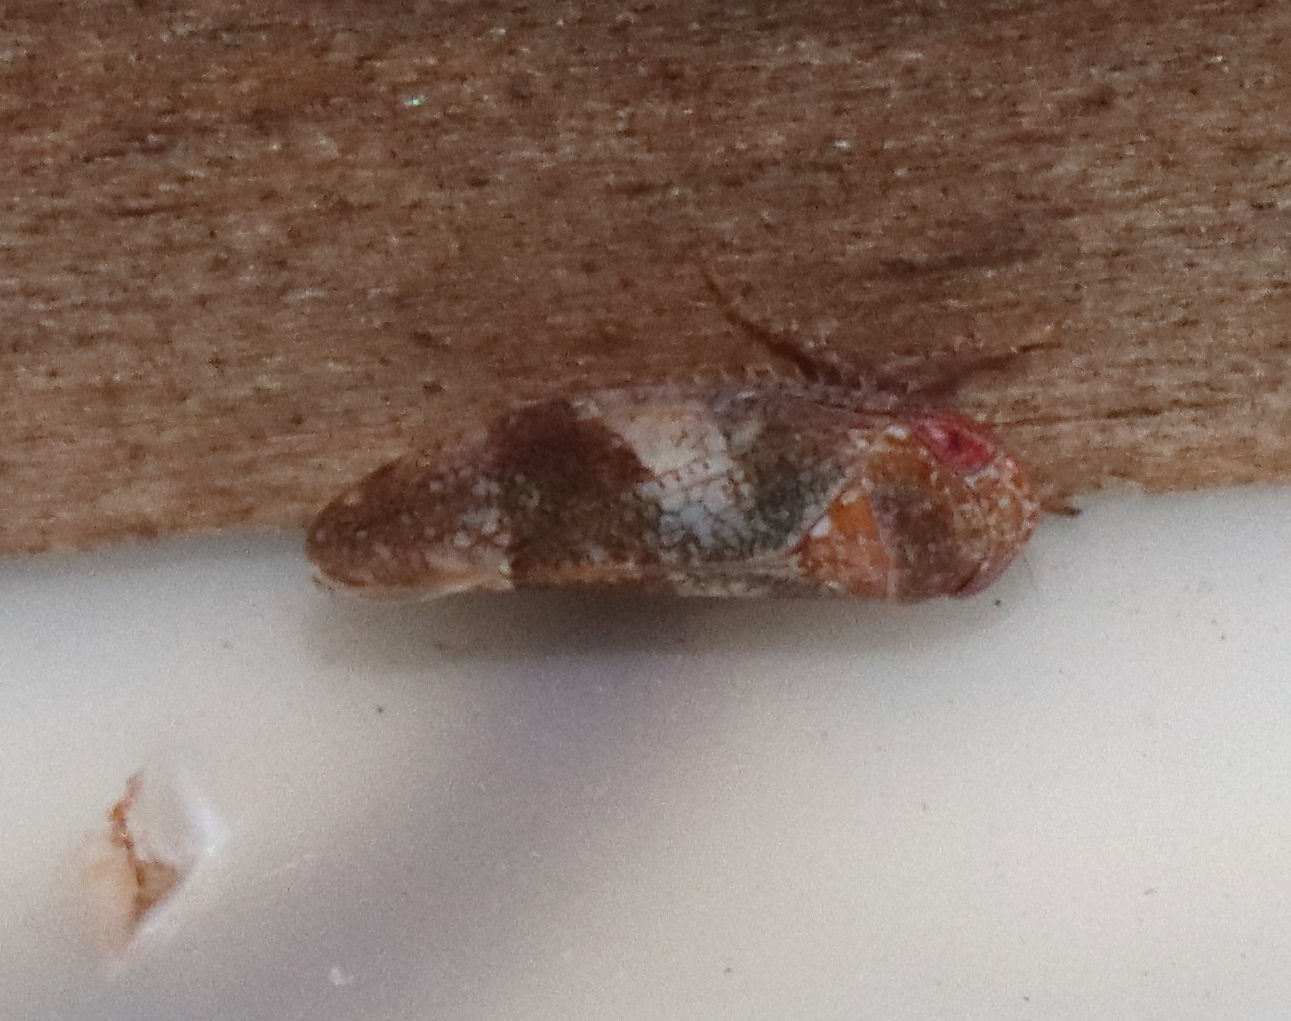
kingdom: Animalia
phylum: Arthropoda
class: Insecta
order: Hemiptera
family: Cicadellidae
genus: Norvellina
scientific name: Norvellina helenae
